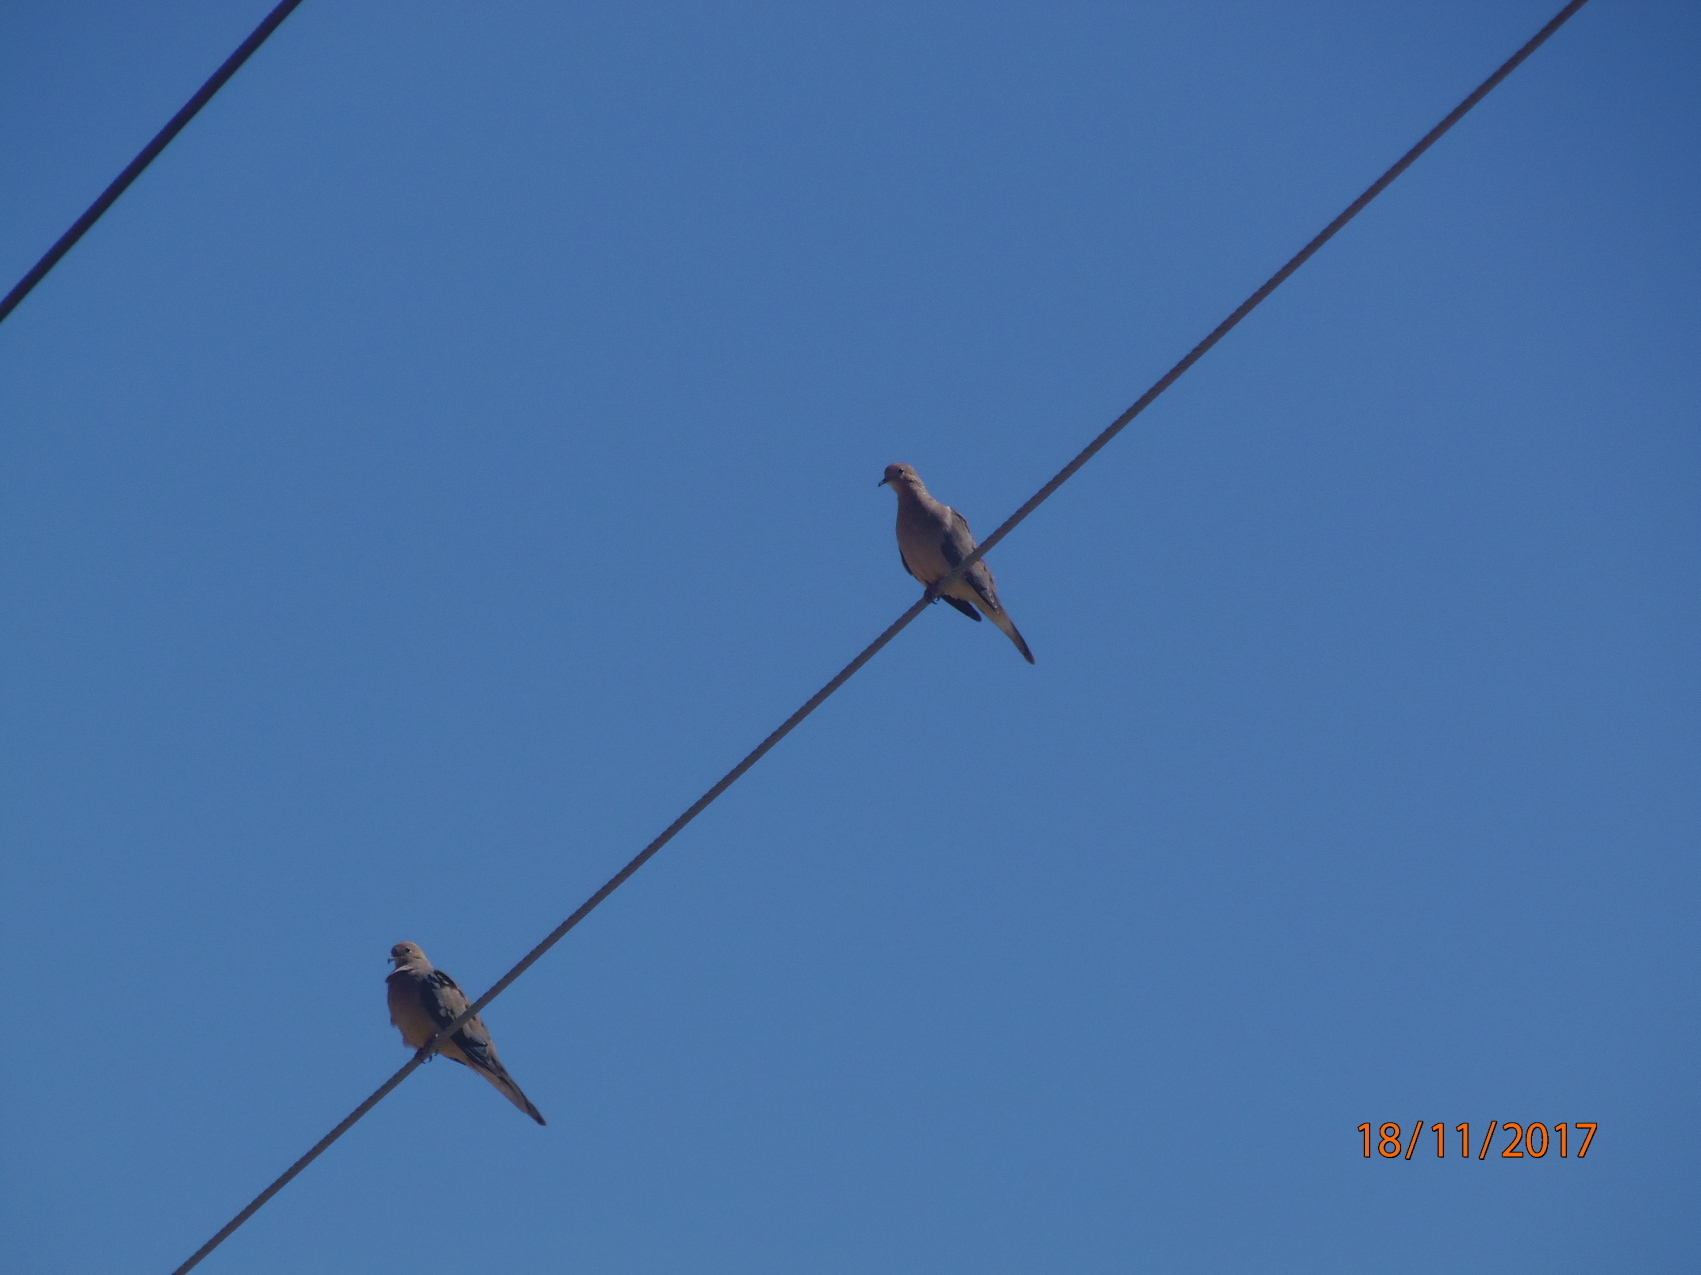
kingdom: Animalia
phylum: Chordata
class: Aves
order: Columbiformes
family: Columbidae
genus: Zenaida
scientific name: Zenaida macroura
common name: Mourning dove
